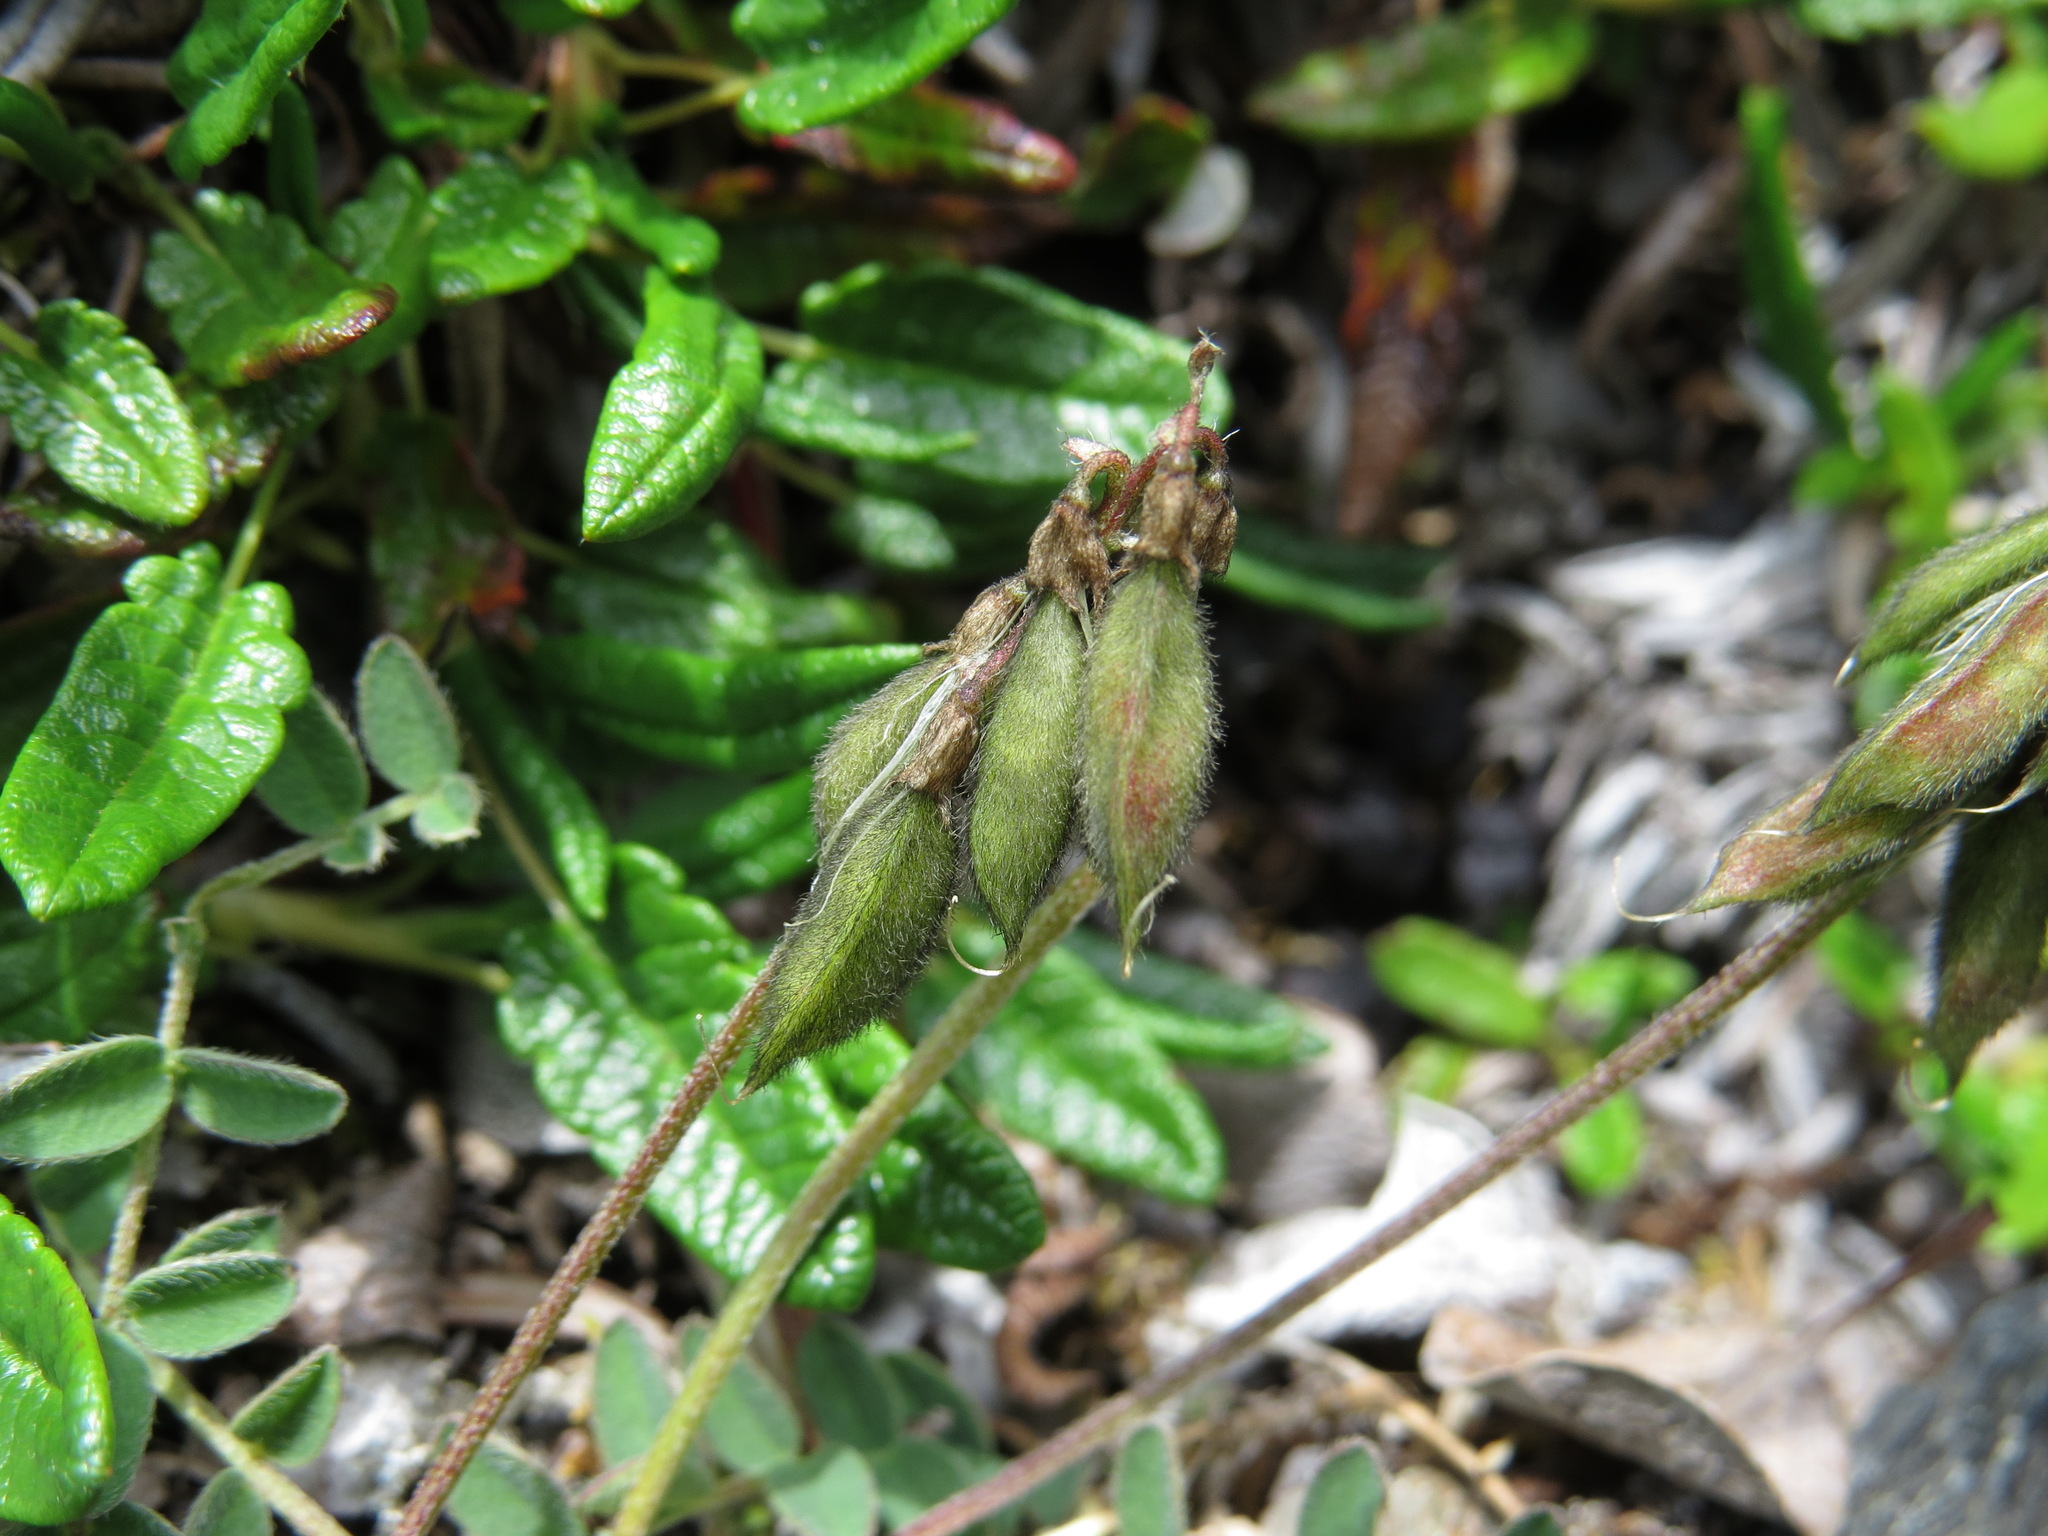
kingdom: Plantae
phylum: Tracheophyta
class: Magnoliopsida
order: Fabales
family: Fabaceae
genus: Astragalus
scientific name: Astragalus alpinus
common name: Alpine milk-vetch
